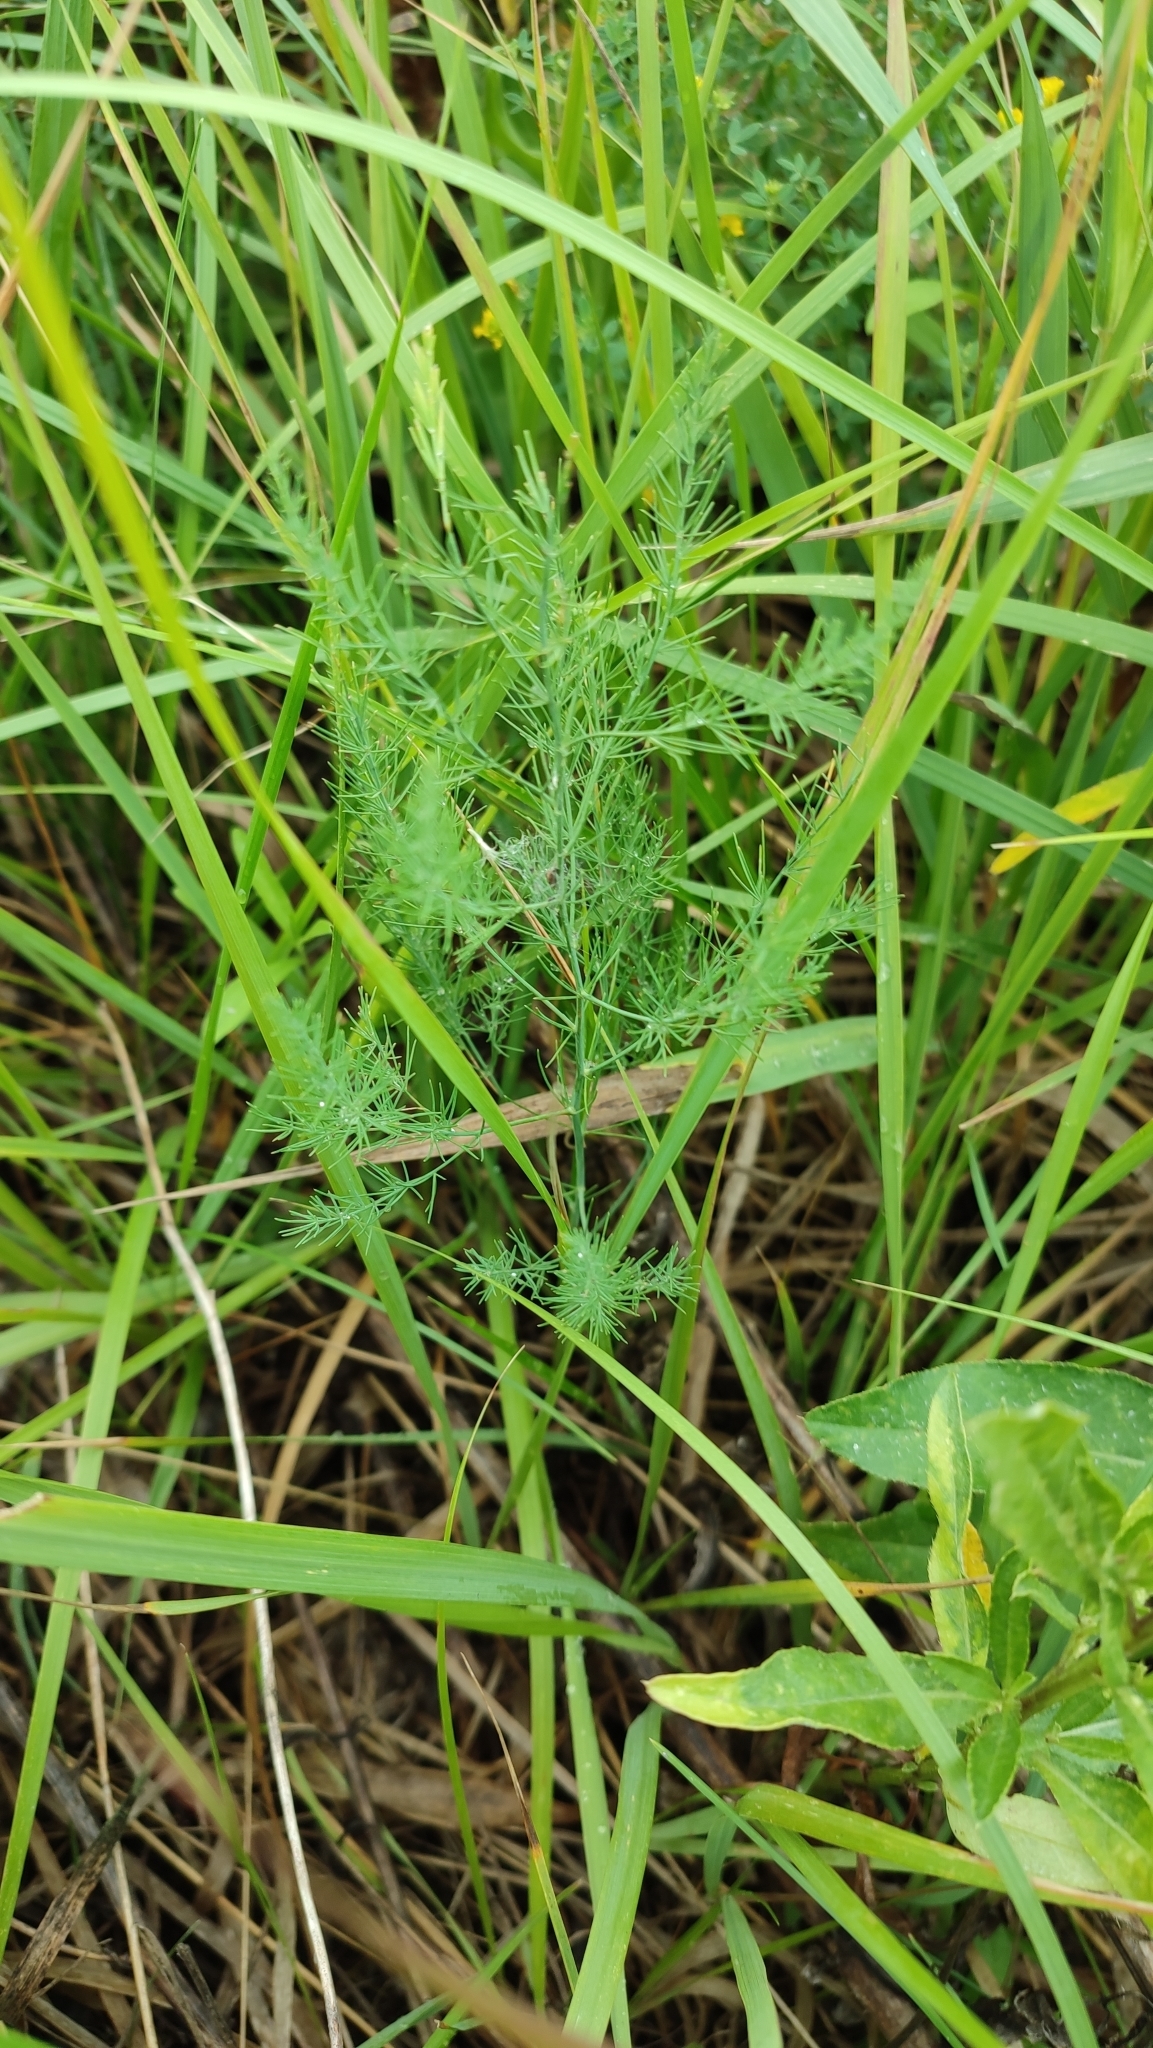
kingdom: Plantae
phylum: Tracheophyta
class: Liliopsida
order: Asparagales
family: Asparagaceae
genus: Asparagus
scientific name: Asparagus officinalis
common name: Garden asparagus
